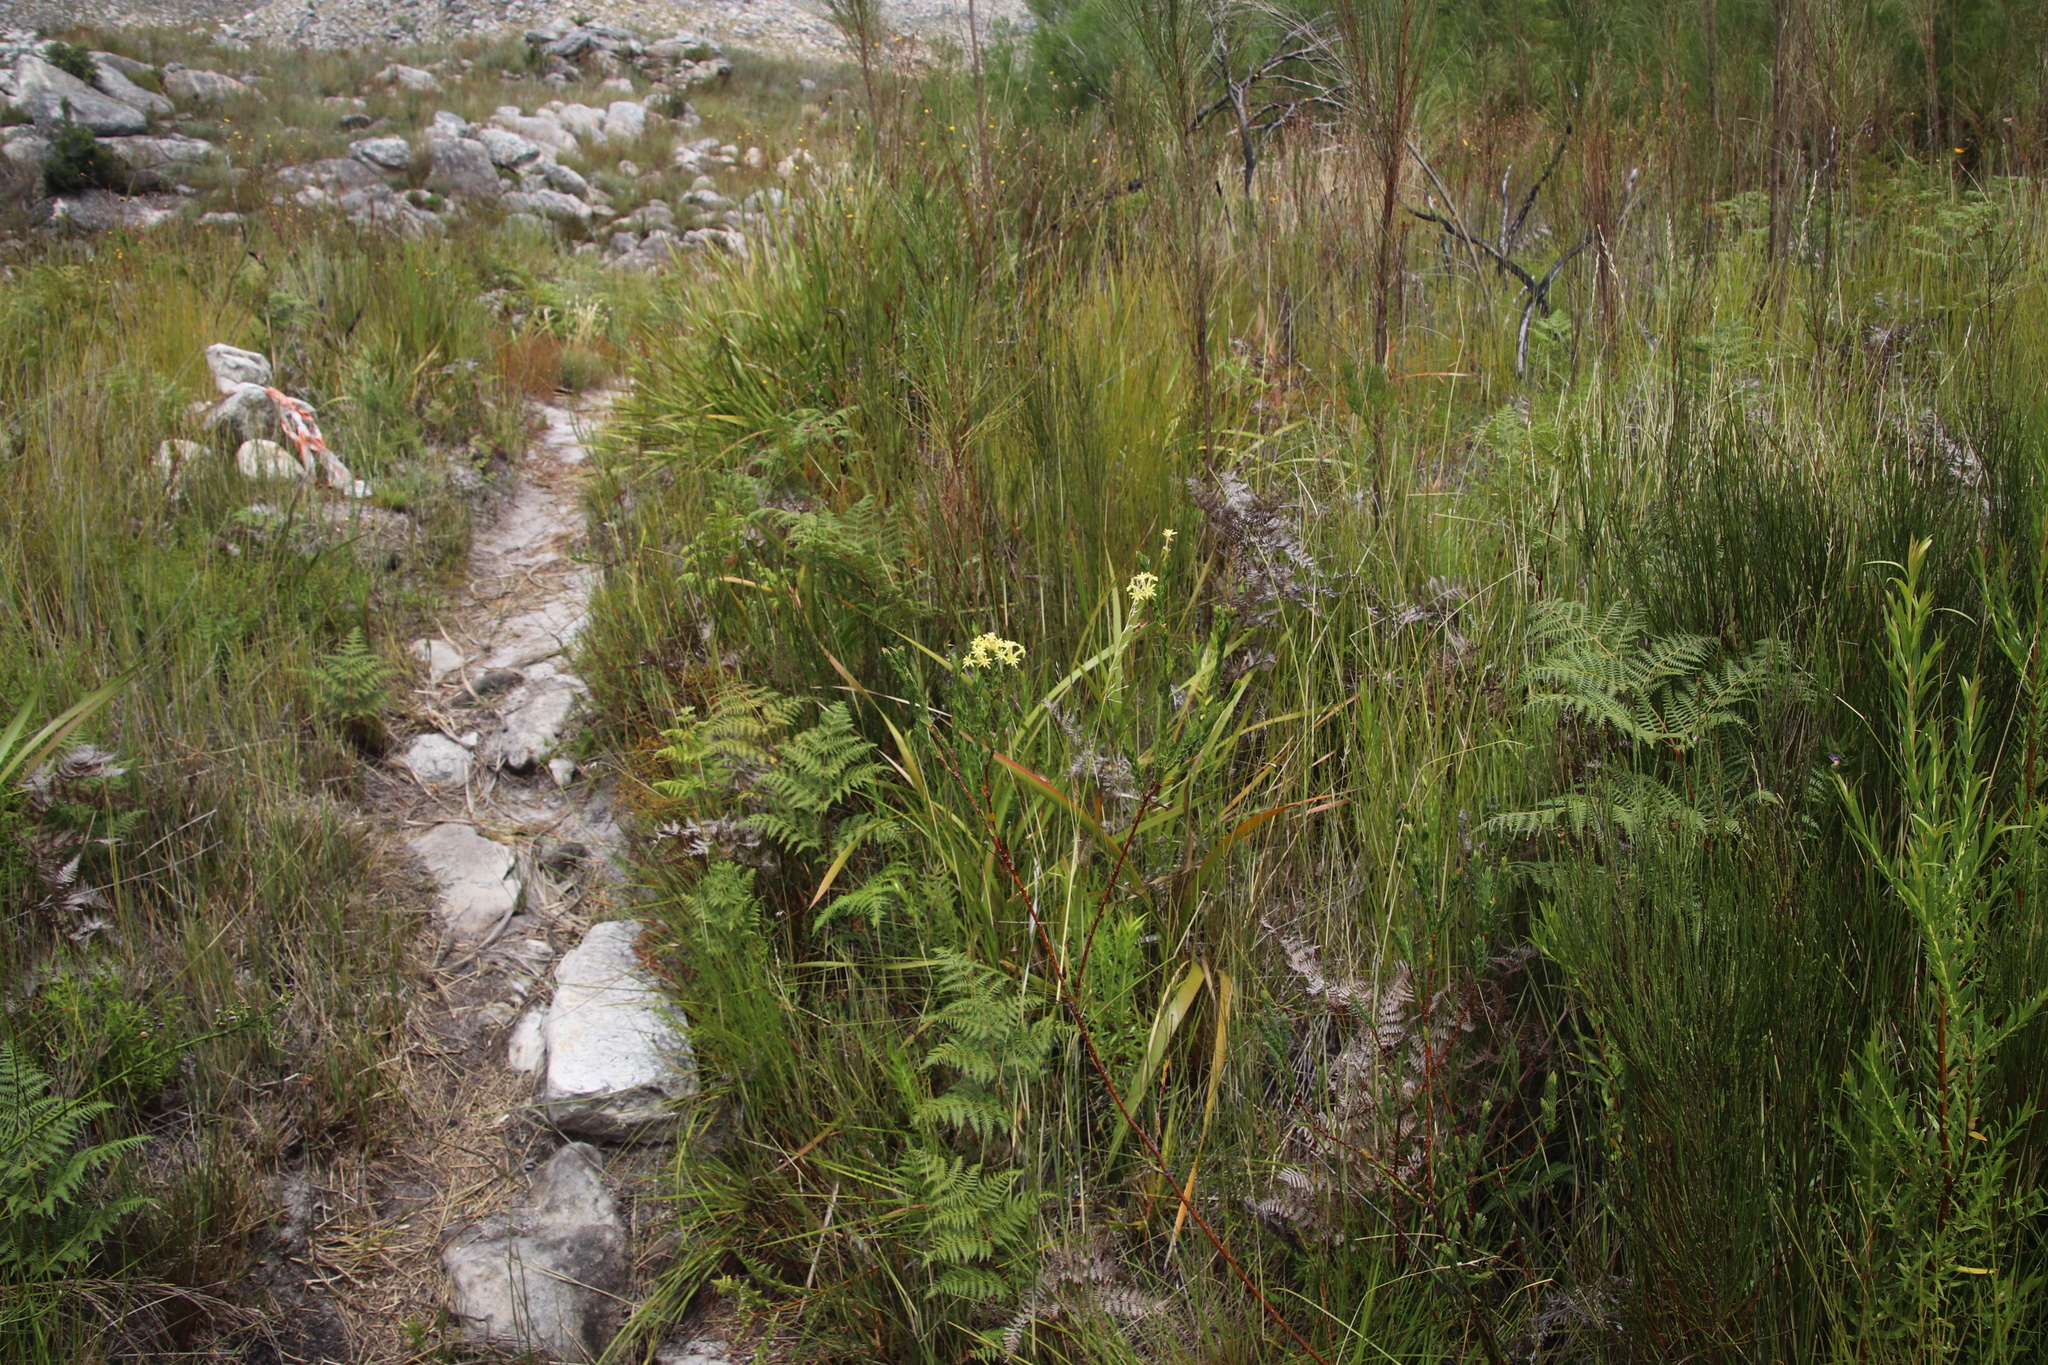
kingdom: Plantae
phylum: Tracheophyta
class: Magnoliopsida
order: Malvales
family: Thymelaeaceae
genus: Gnidia
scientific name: Gnidia oppositifolia
